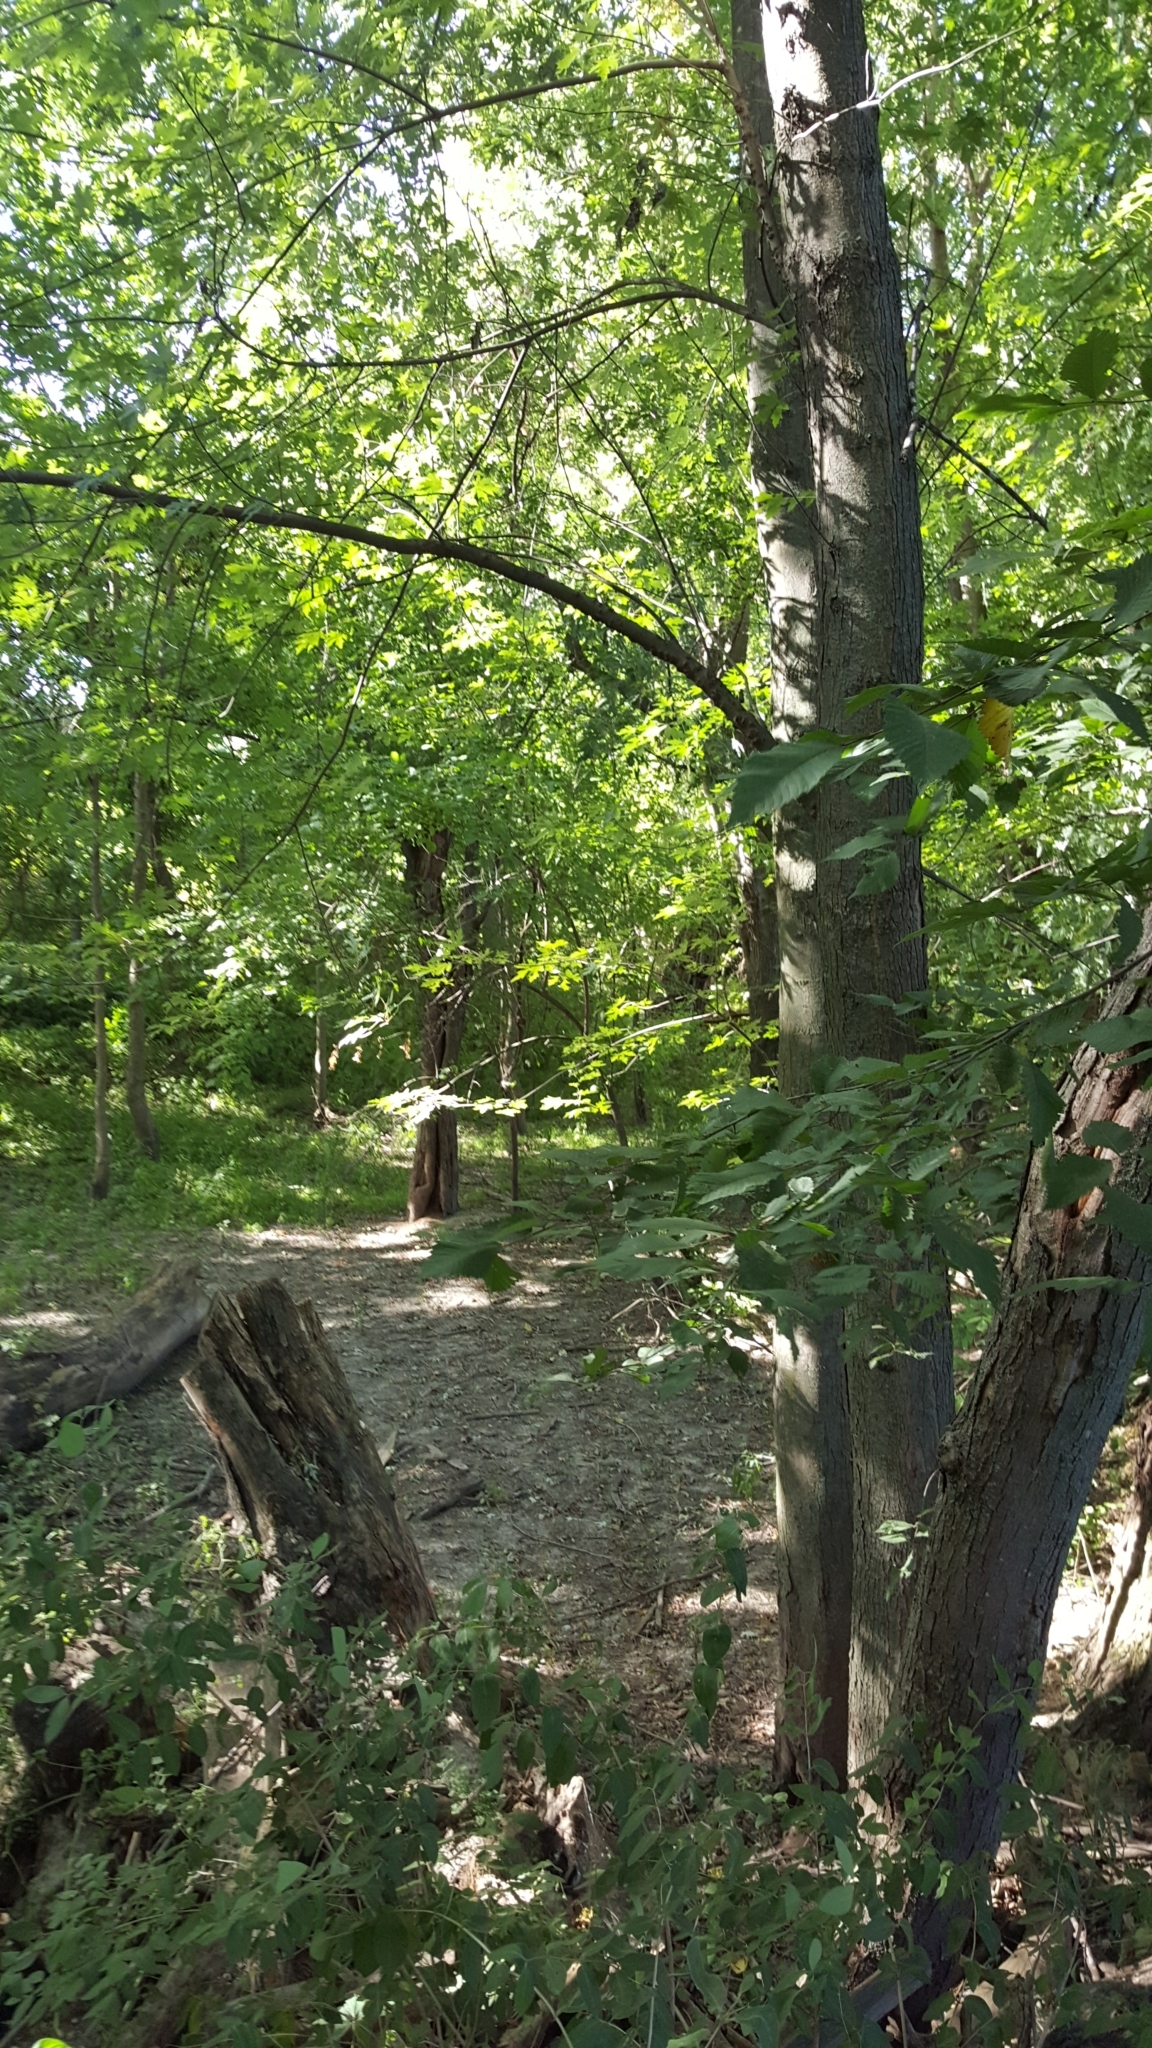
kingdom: Plantae
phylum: Tracheophyta
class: Magnoliopsida
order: Sapindales
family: Sapindaceae
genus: Acer
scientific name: Acer saccharinum
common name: Silver maple
